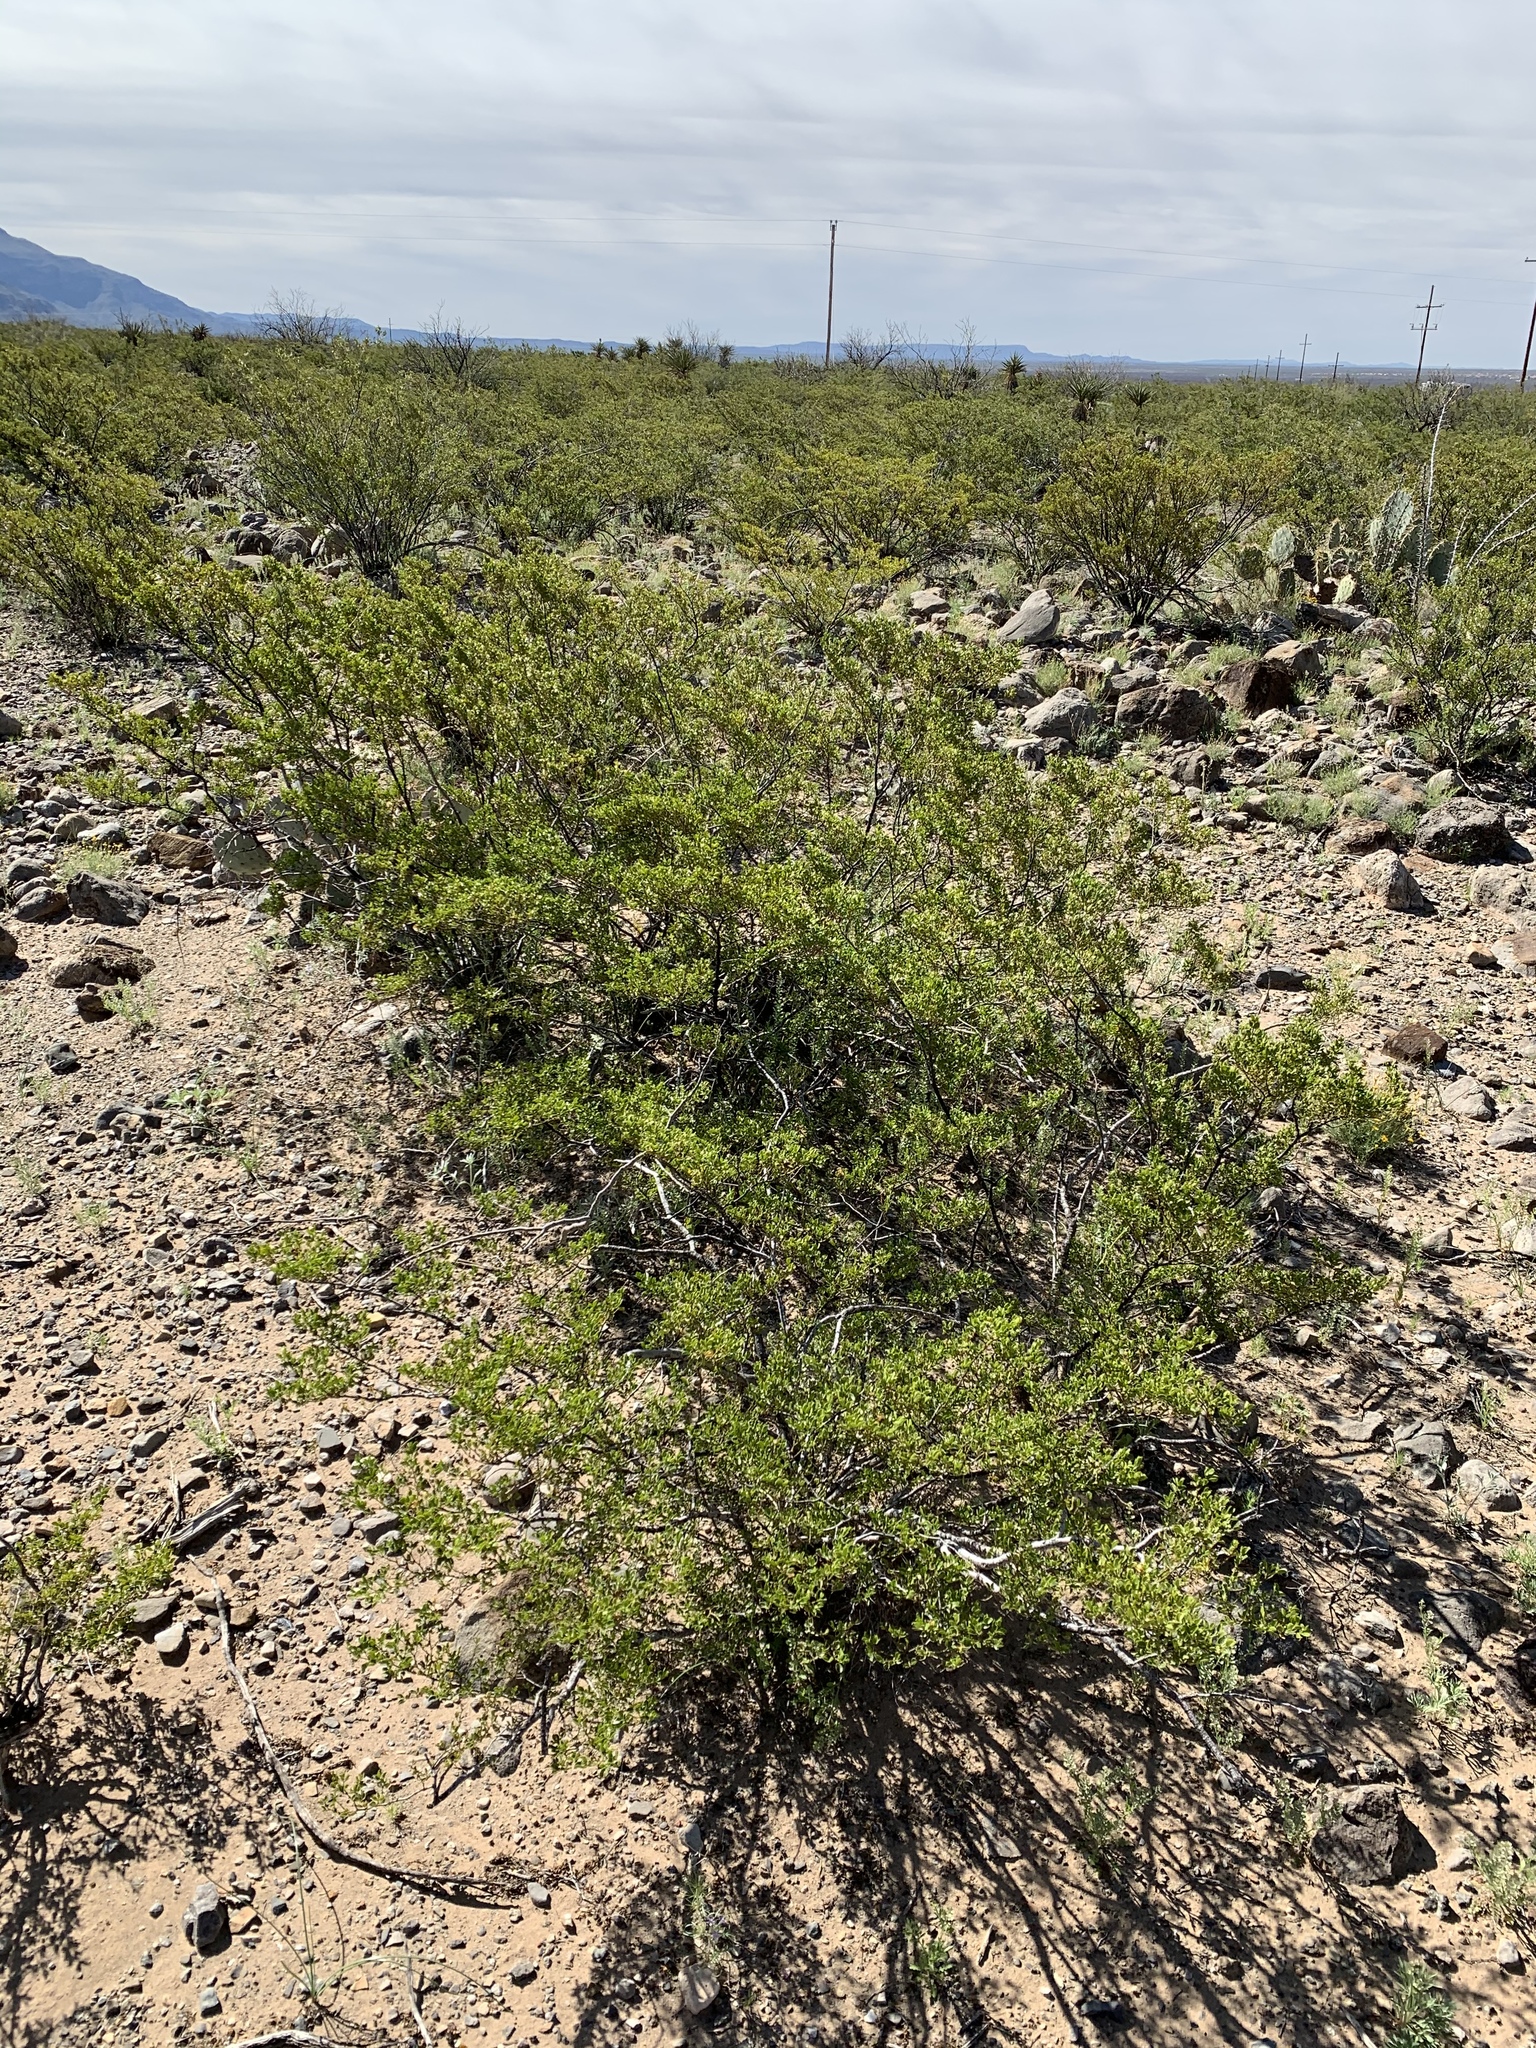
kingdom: Plantae
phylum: Tracheophyta
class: Magnoliopsida
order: Zygophyllales
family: Zygophyllaceae
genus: Larrea
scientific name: Larrea tridentata
